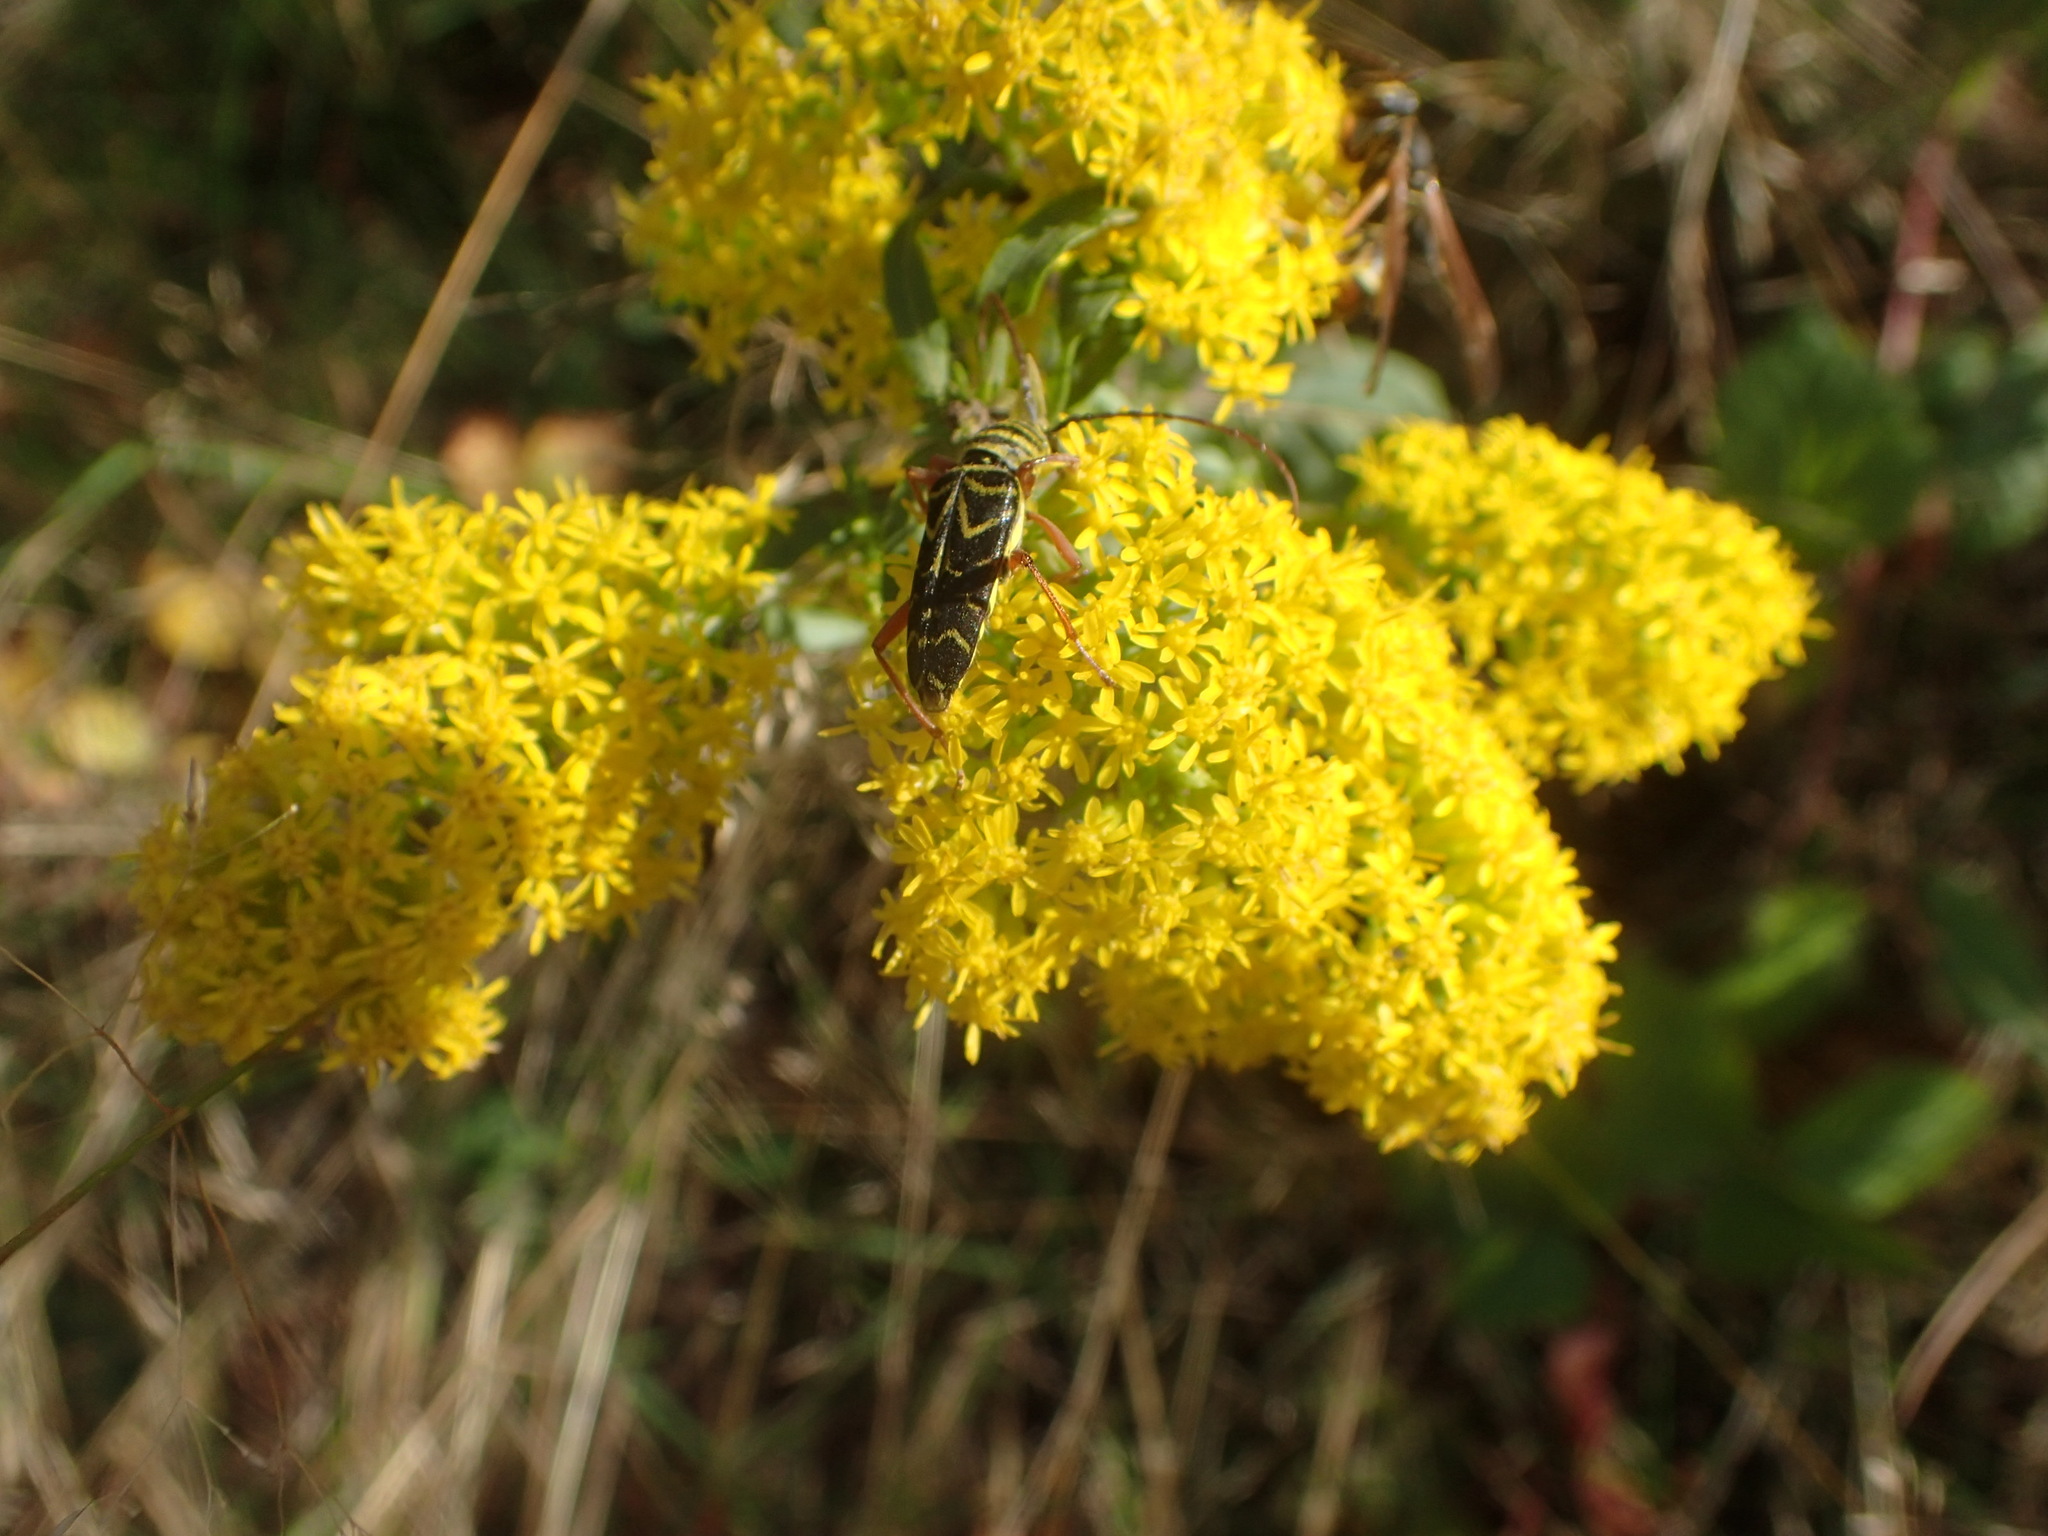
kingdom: Animalia
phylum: Arthropoda
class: Insecta
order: Coleoptera
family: Cerambycidae
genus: Megacyllene
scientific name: Megacyllene robiniae
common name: Locust borer
